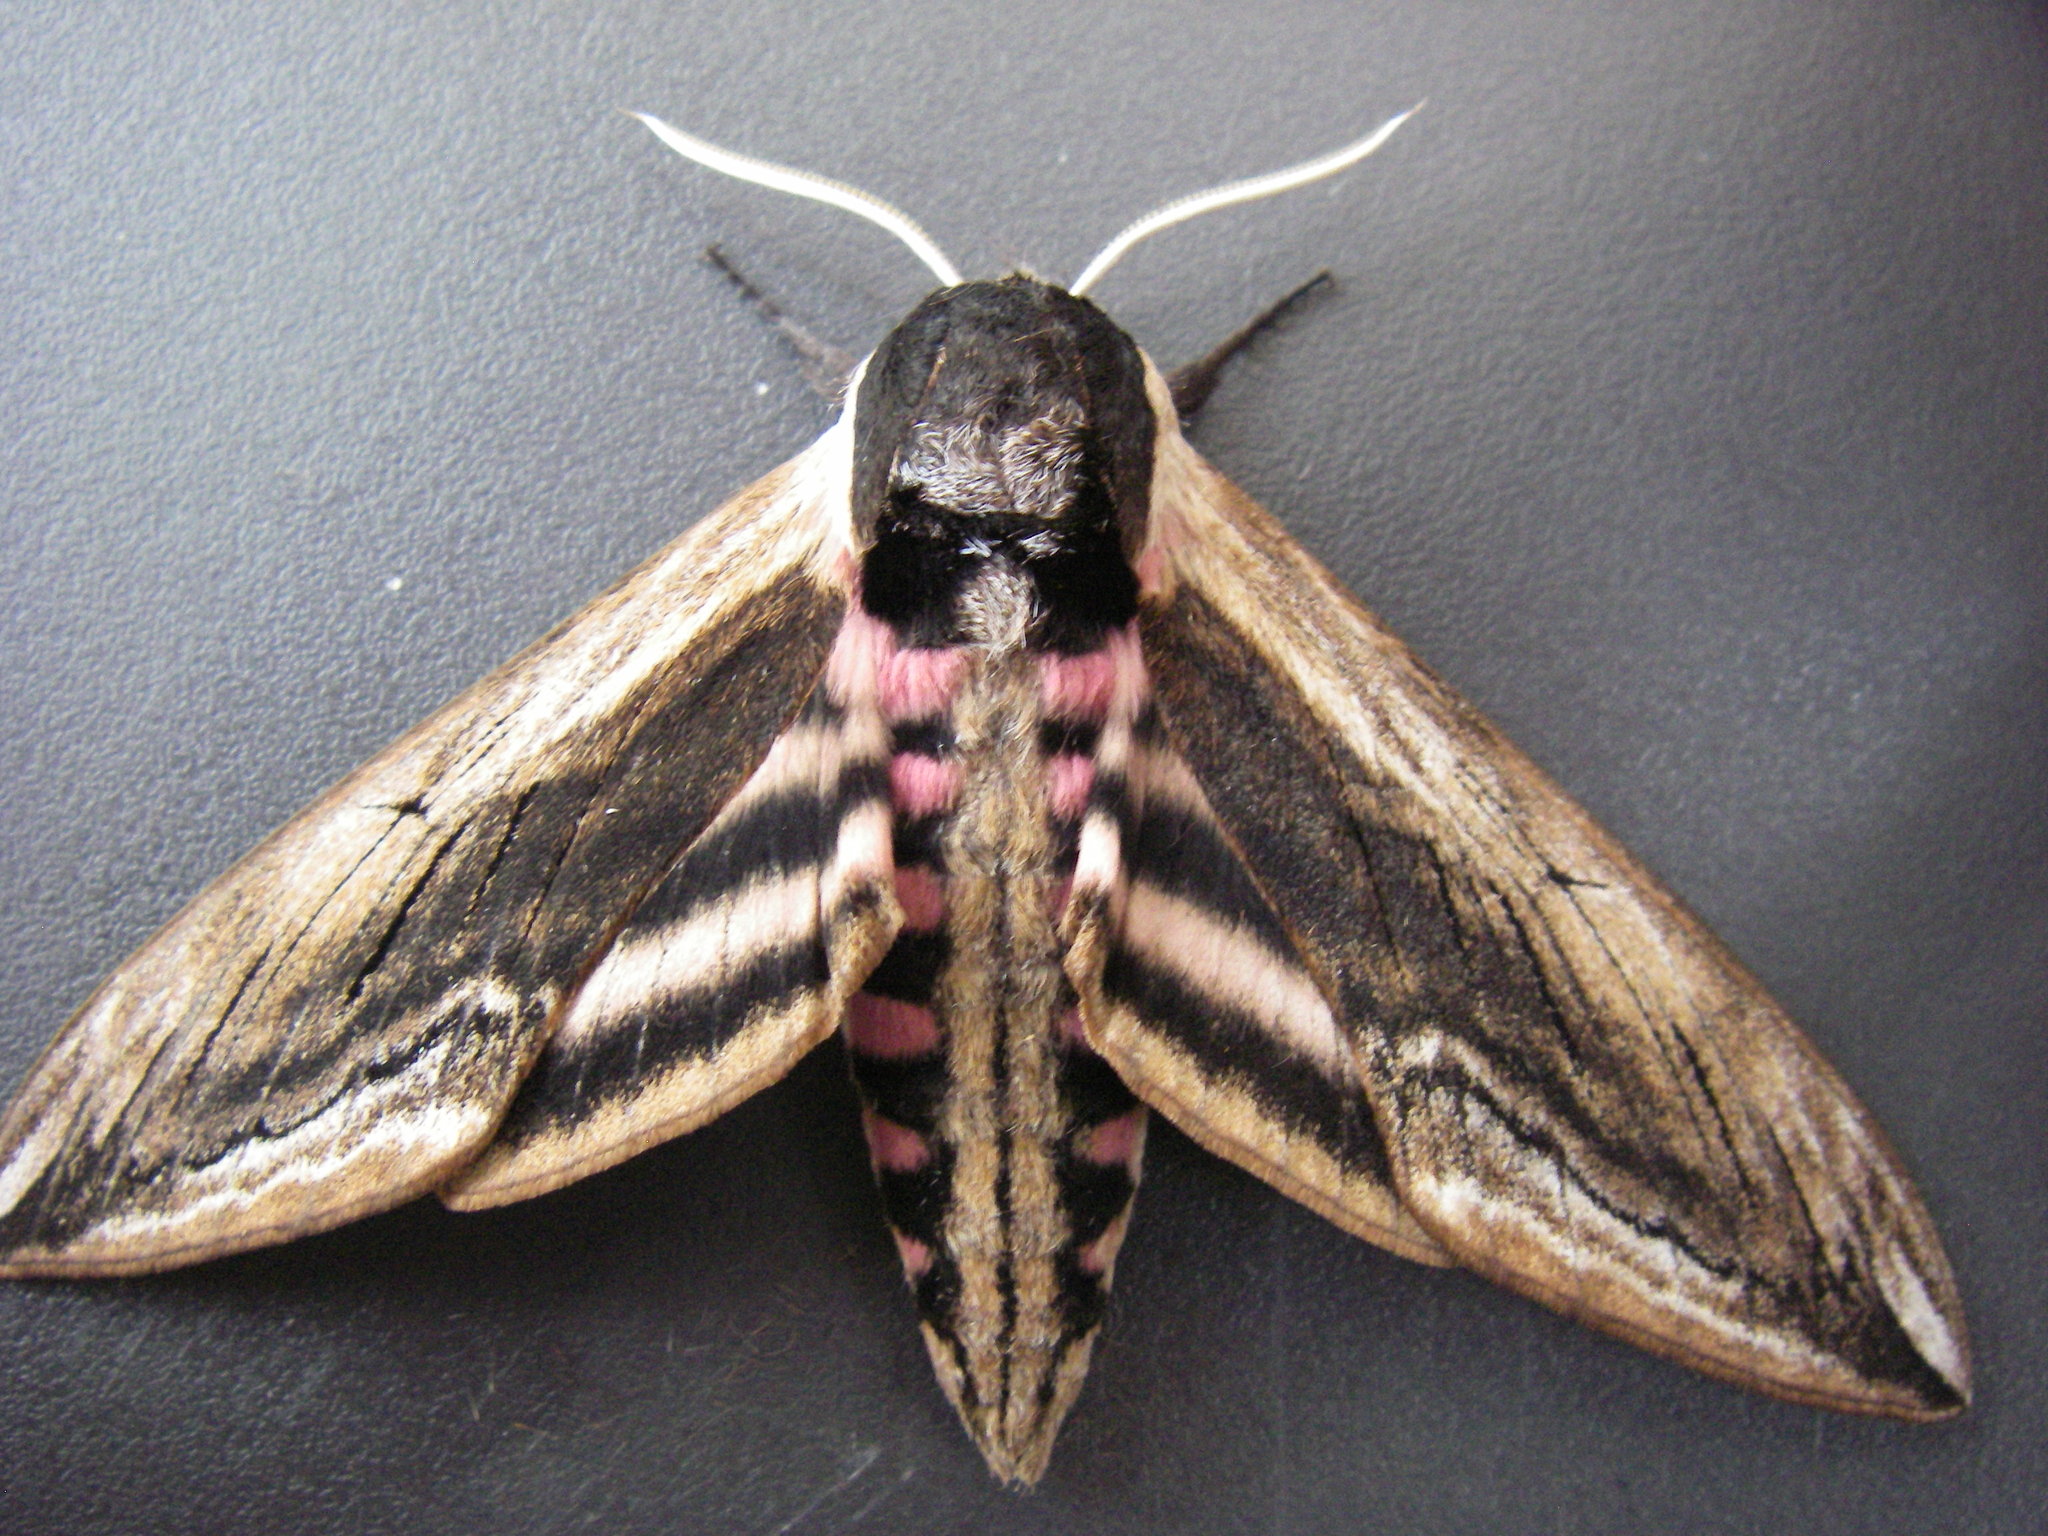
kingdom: Animalia
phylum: Arthropoda
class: Insecta
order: Lepidoptera
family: Sphingidae
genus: Sphinx
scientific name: Sphinx ligustri
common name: Privet hawk-moth
